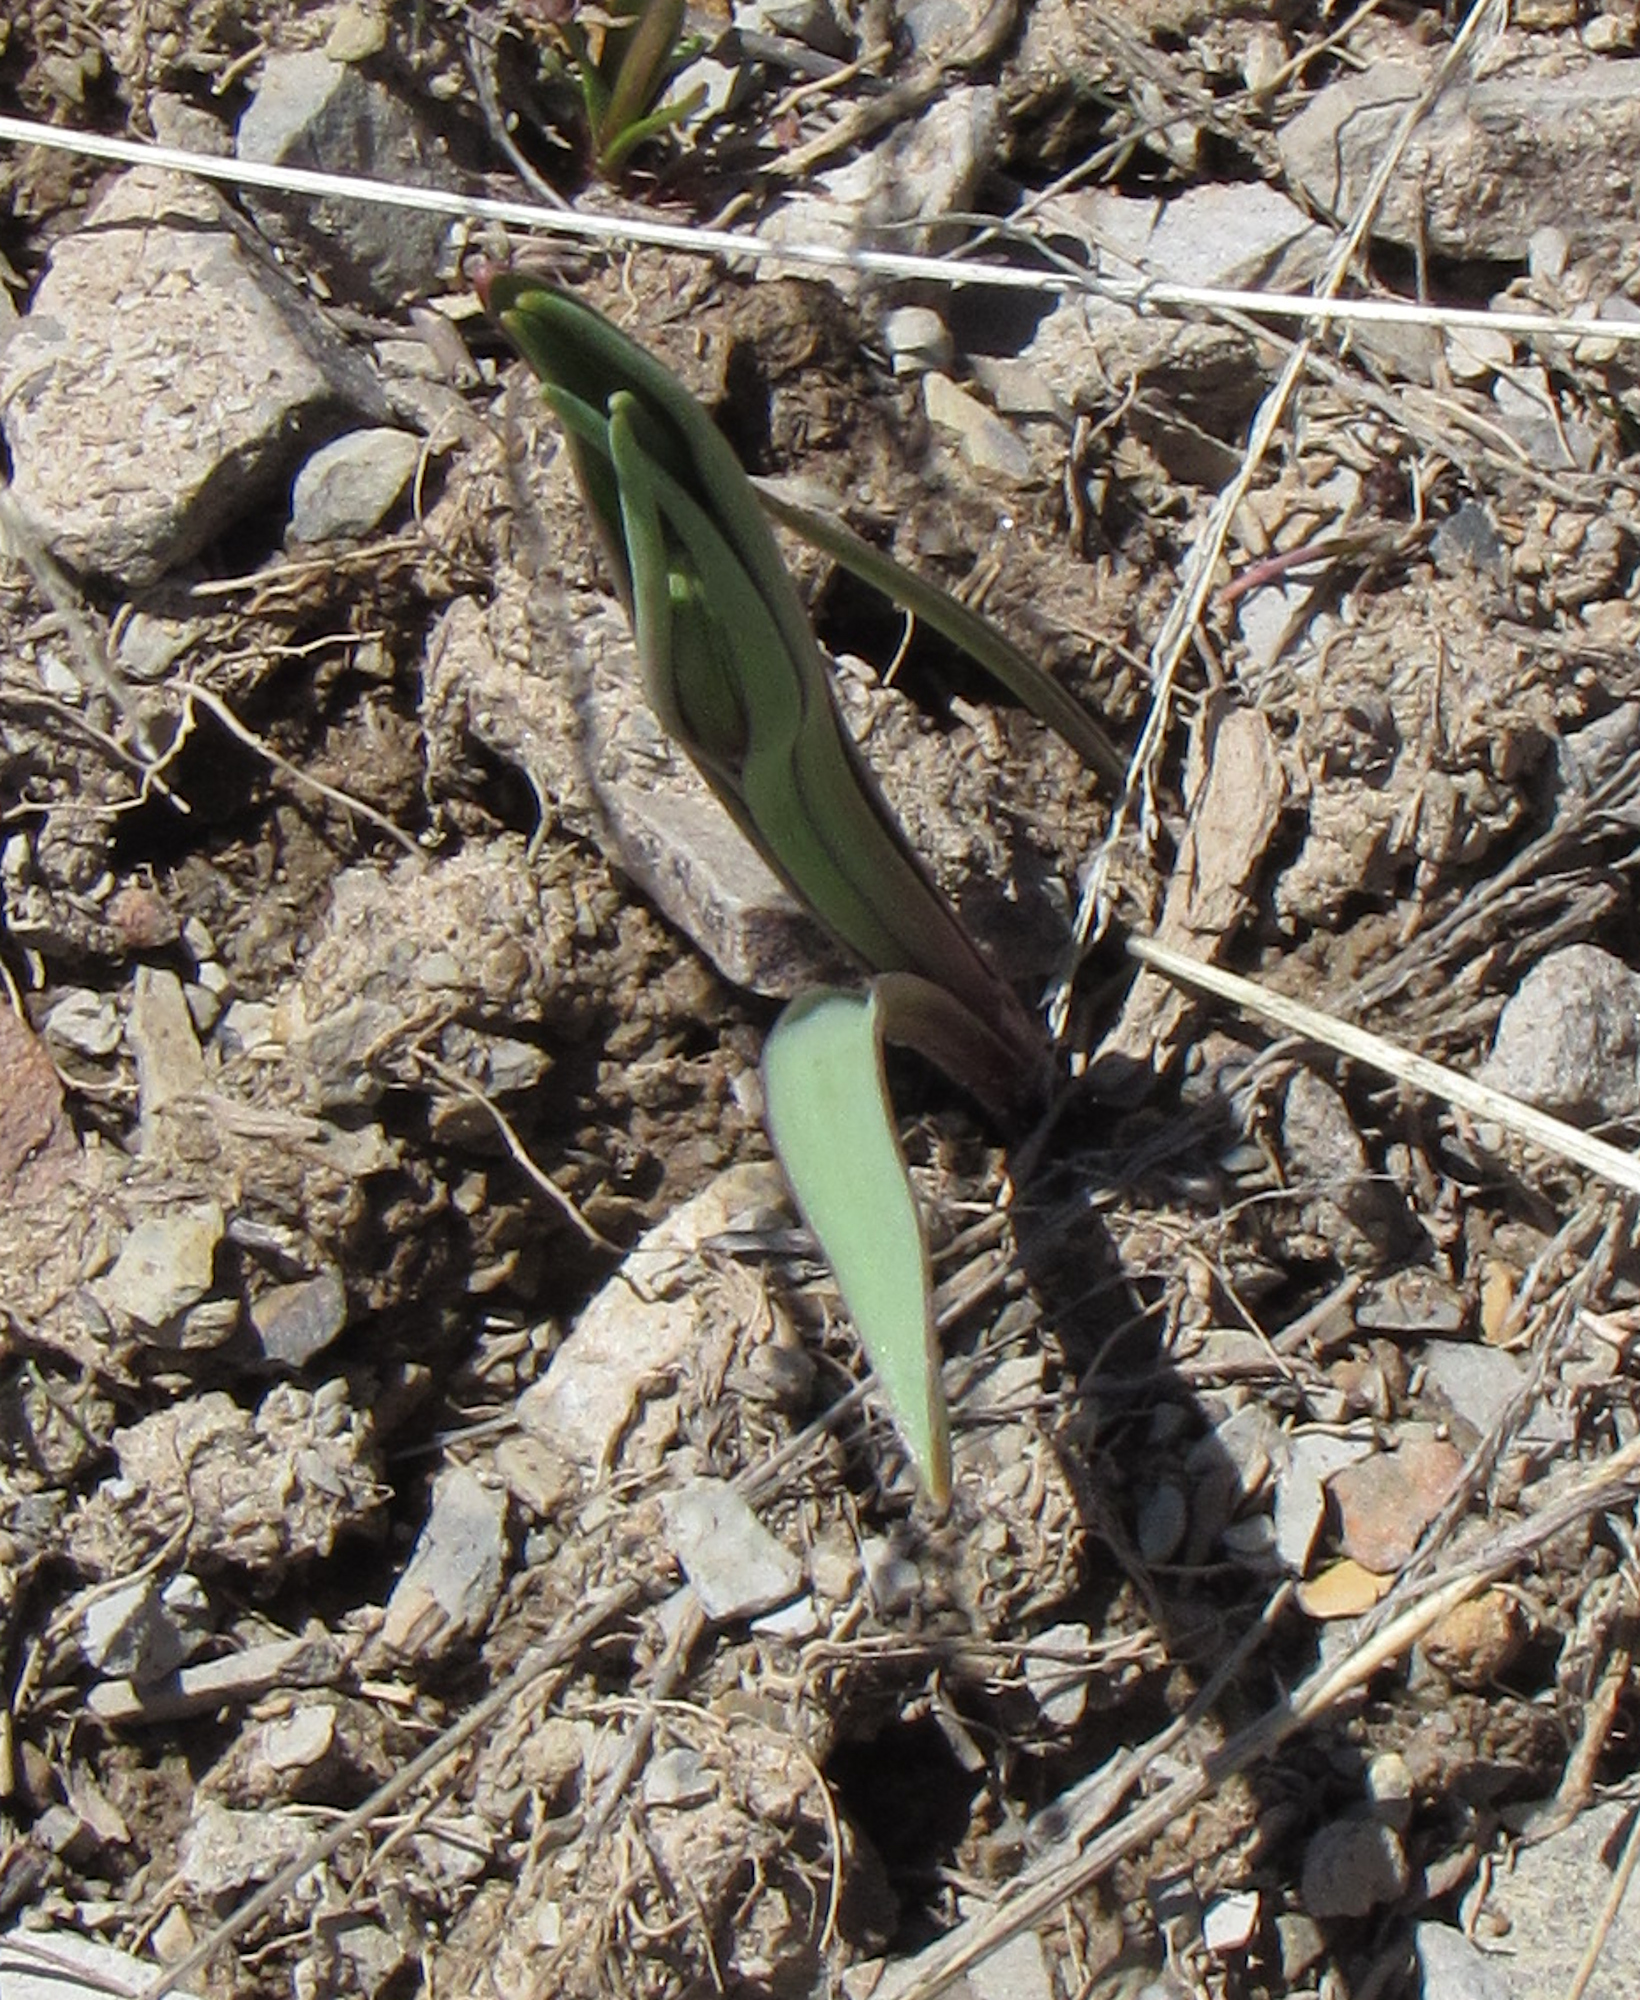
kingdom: Plantae
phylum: Tracheophyta
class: Liliopsida
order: Liliales
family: Liliaceae
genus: Fritillaria
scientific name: Fritillaria pudica
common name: Yellow fritillary
